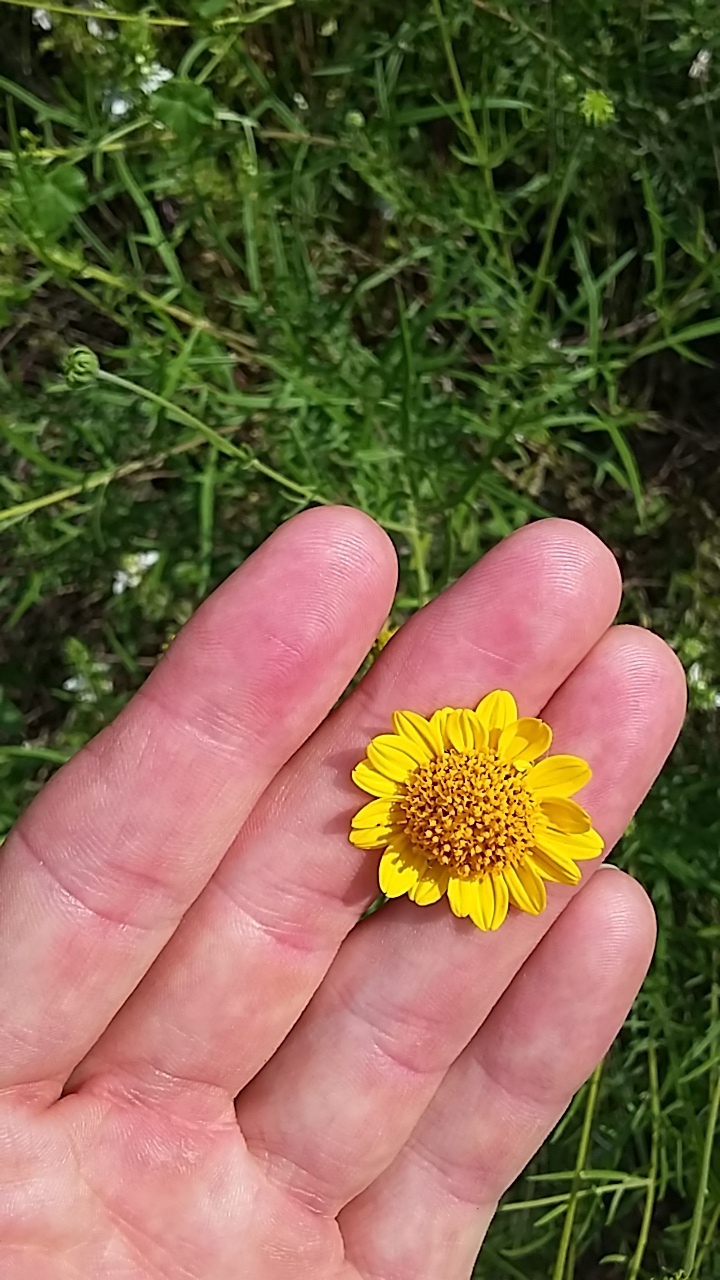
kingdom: Plantae
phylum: Tracheophyta
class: Magnoliopsida
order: Asterales
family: Asteraceae
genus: Sidneya
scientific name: Sidneya tenuifolia
